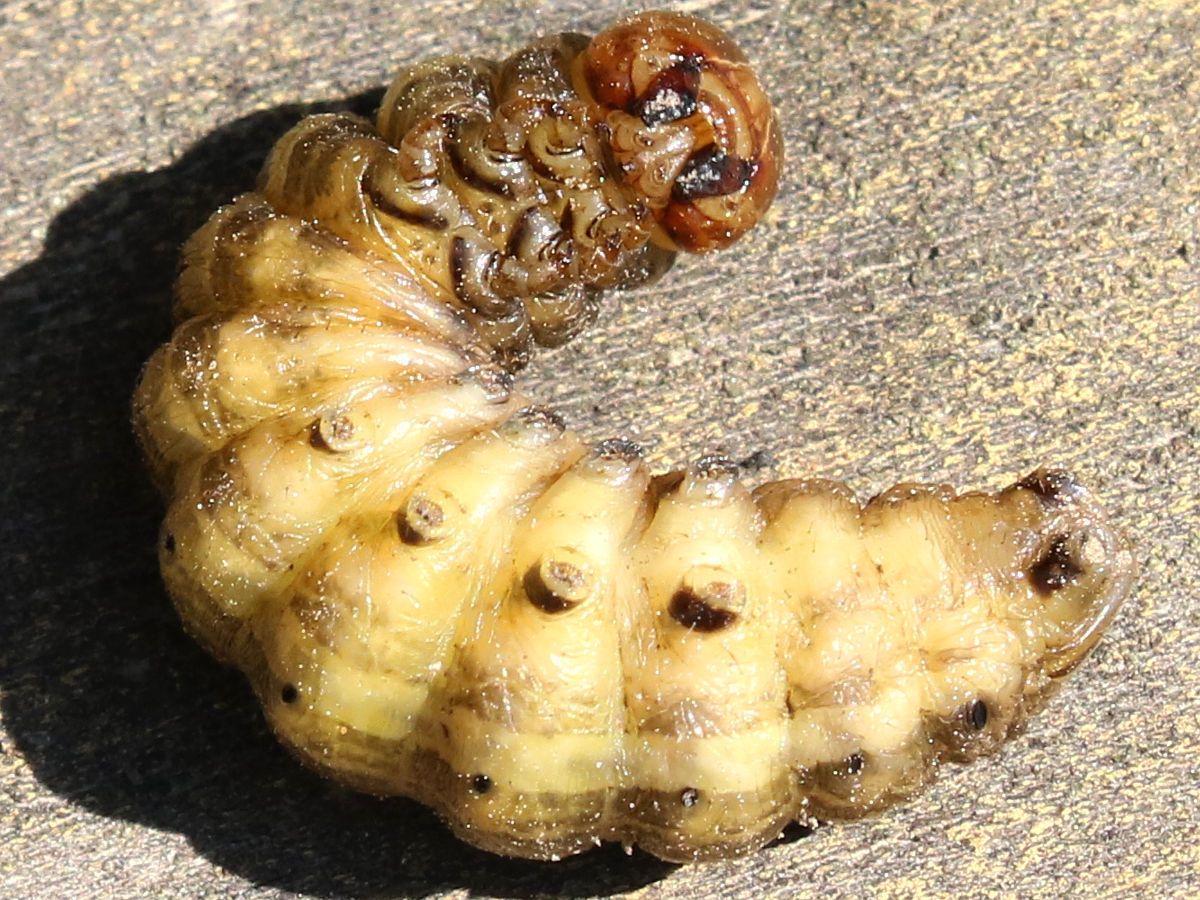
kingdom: Animalia
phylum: Arthropoda
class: Insecta
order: Lepidoptera
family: Noctuidae
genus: Nephelodes
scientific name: Nephelodes minians
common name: Bronzed cutworm
